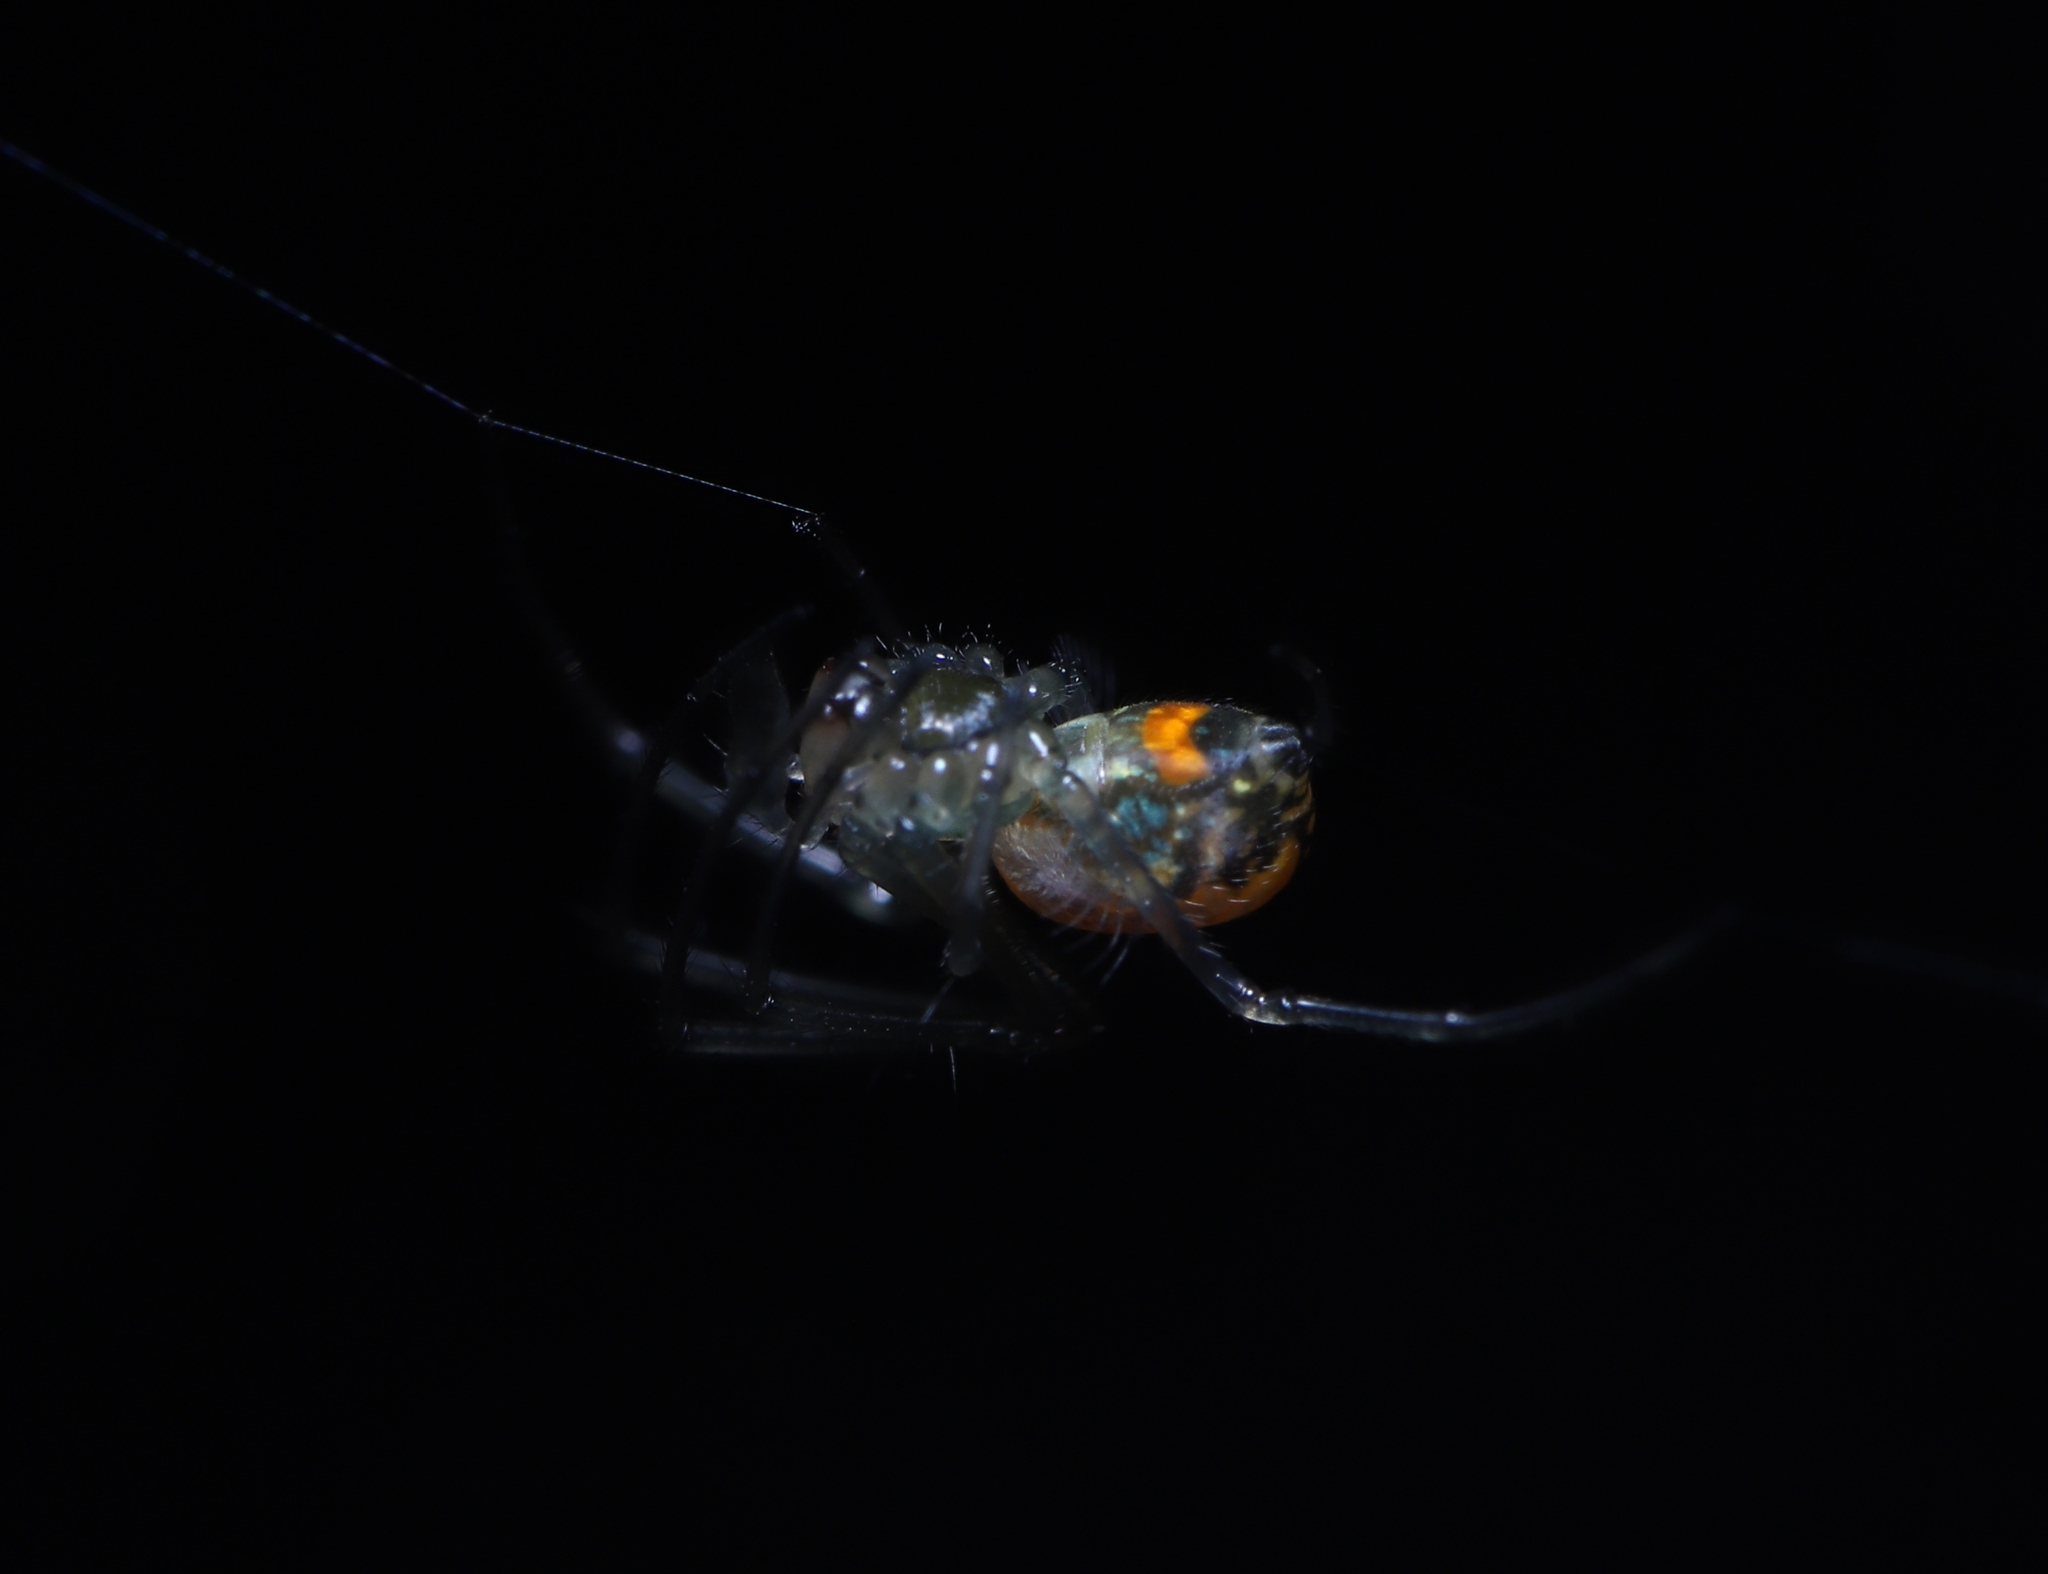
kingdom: Animalia
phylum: Arthropoda
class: Arachnida
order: Araneae
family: Tetragnathidae
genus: Leucauge
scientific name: Leucauge venusta
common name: Longjawed orb weavers
